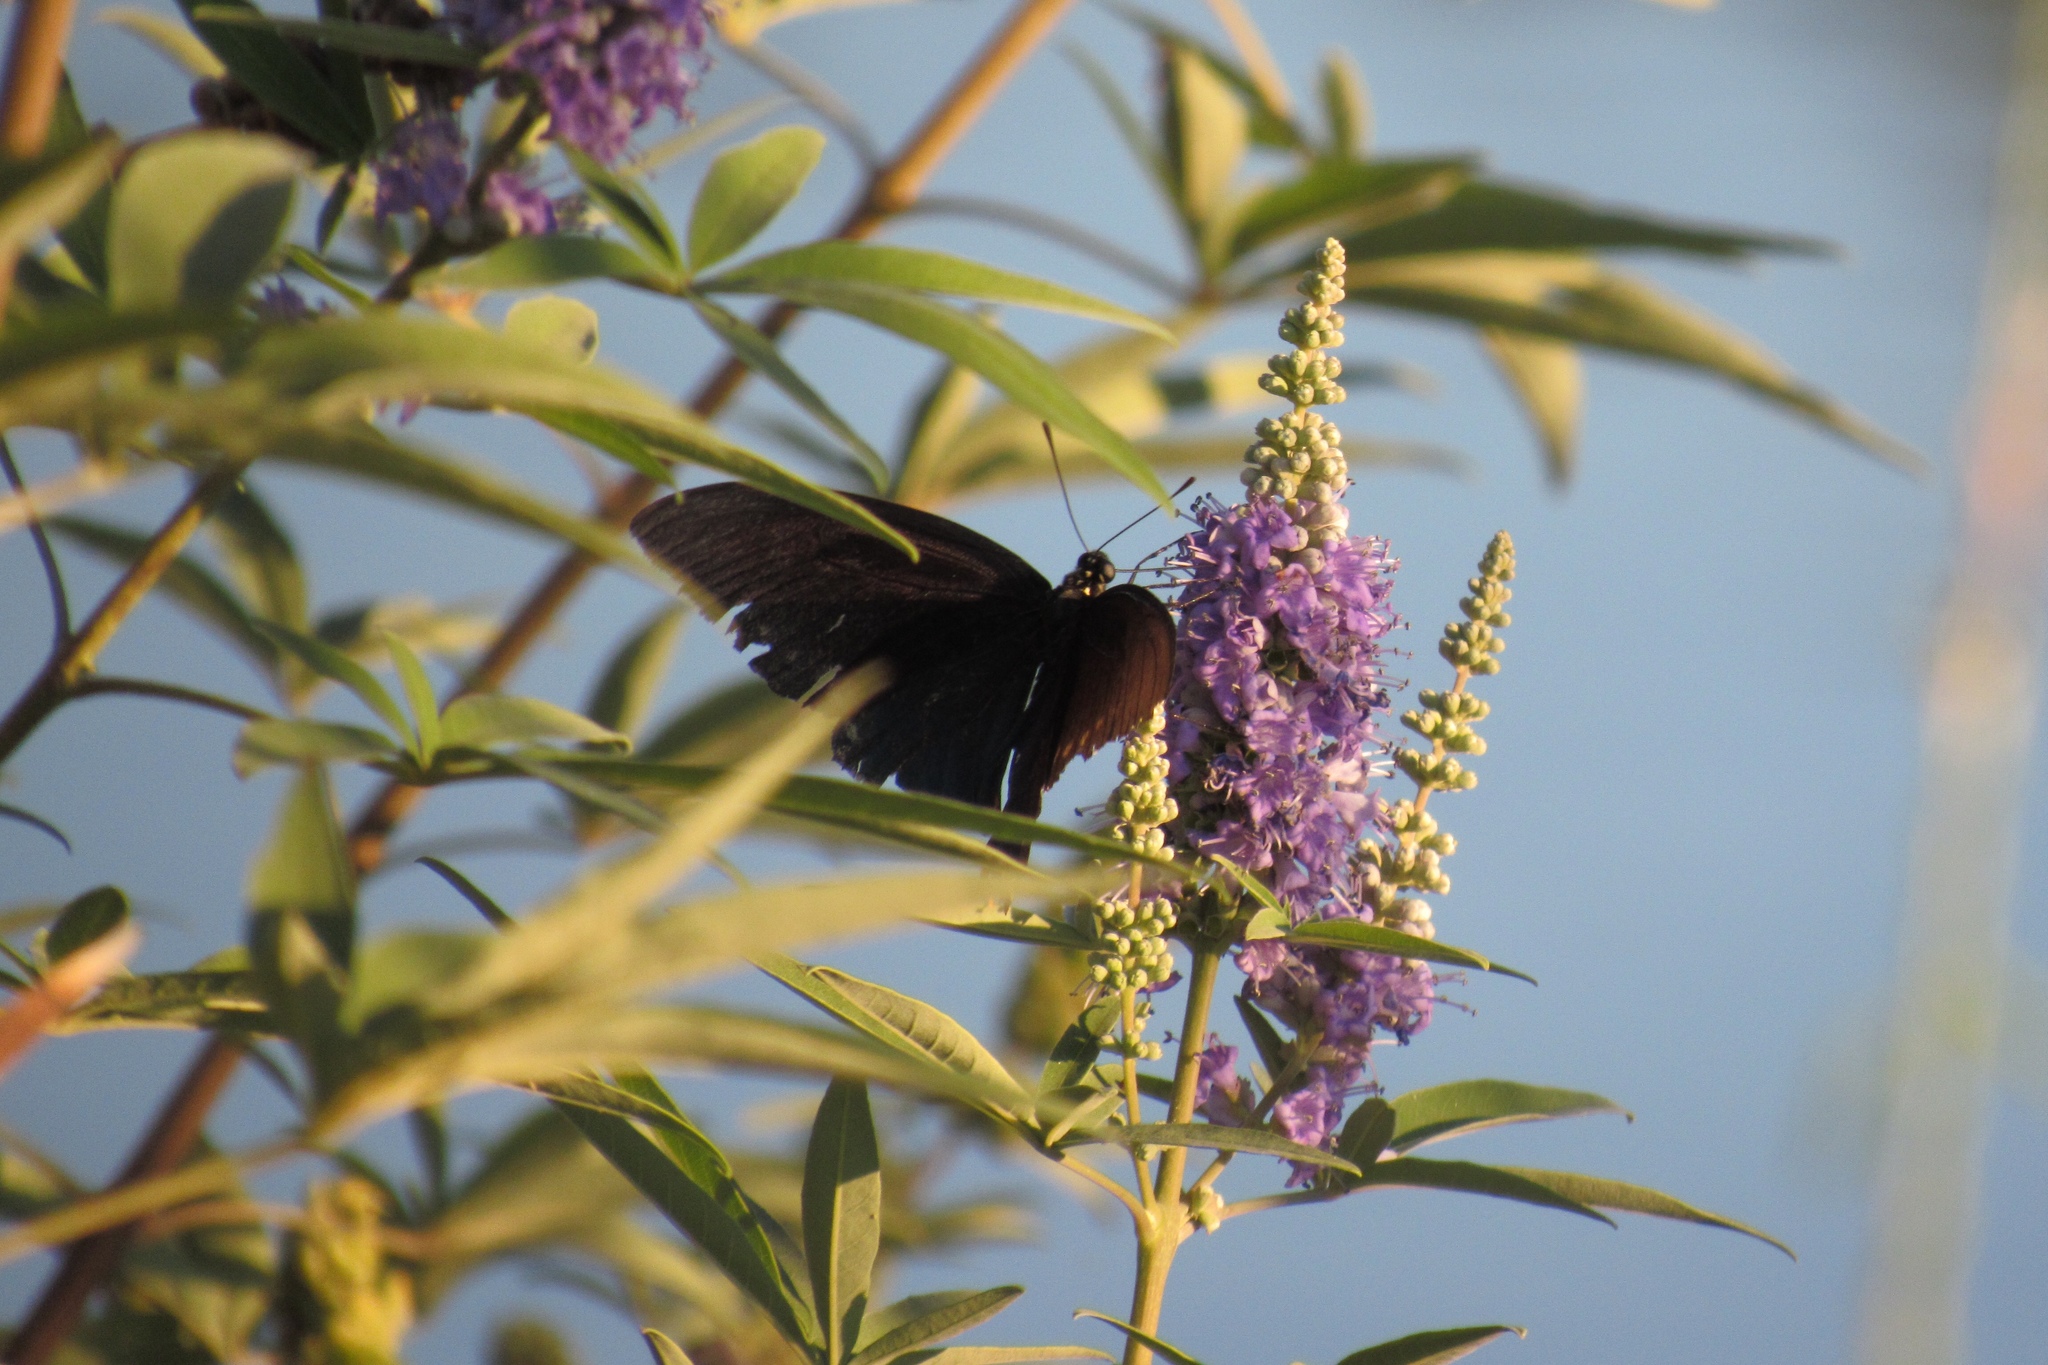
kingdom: Animalia
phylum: Arthropoda
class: Insecta
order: Lepidoptera
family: Papilionidae
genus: Battus
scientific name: Battus philenor
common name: Pipevine swallowtail
